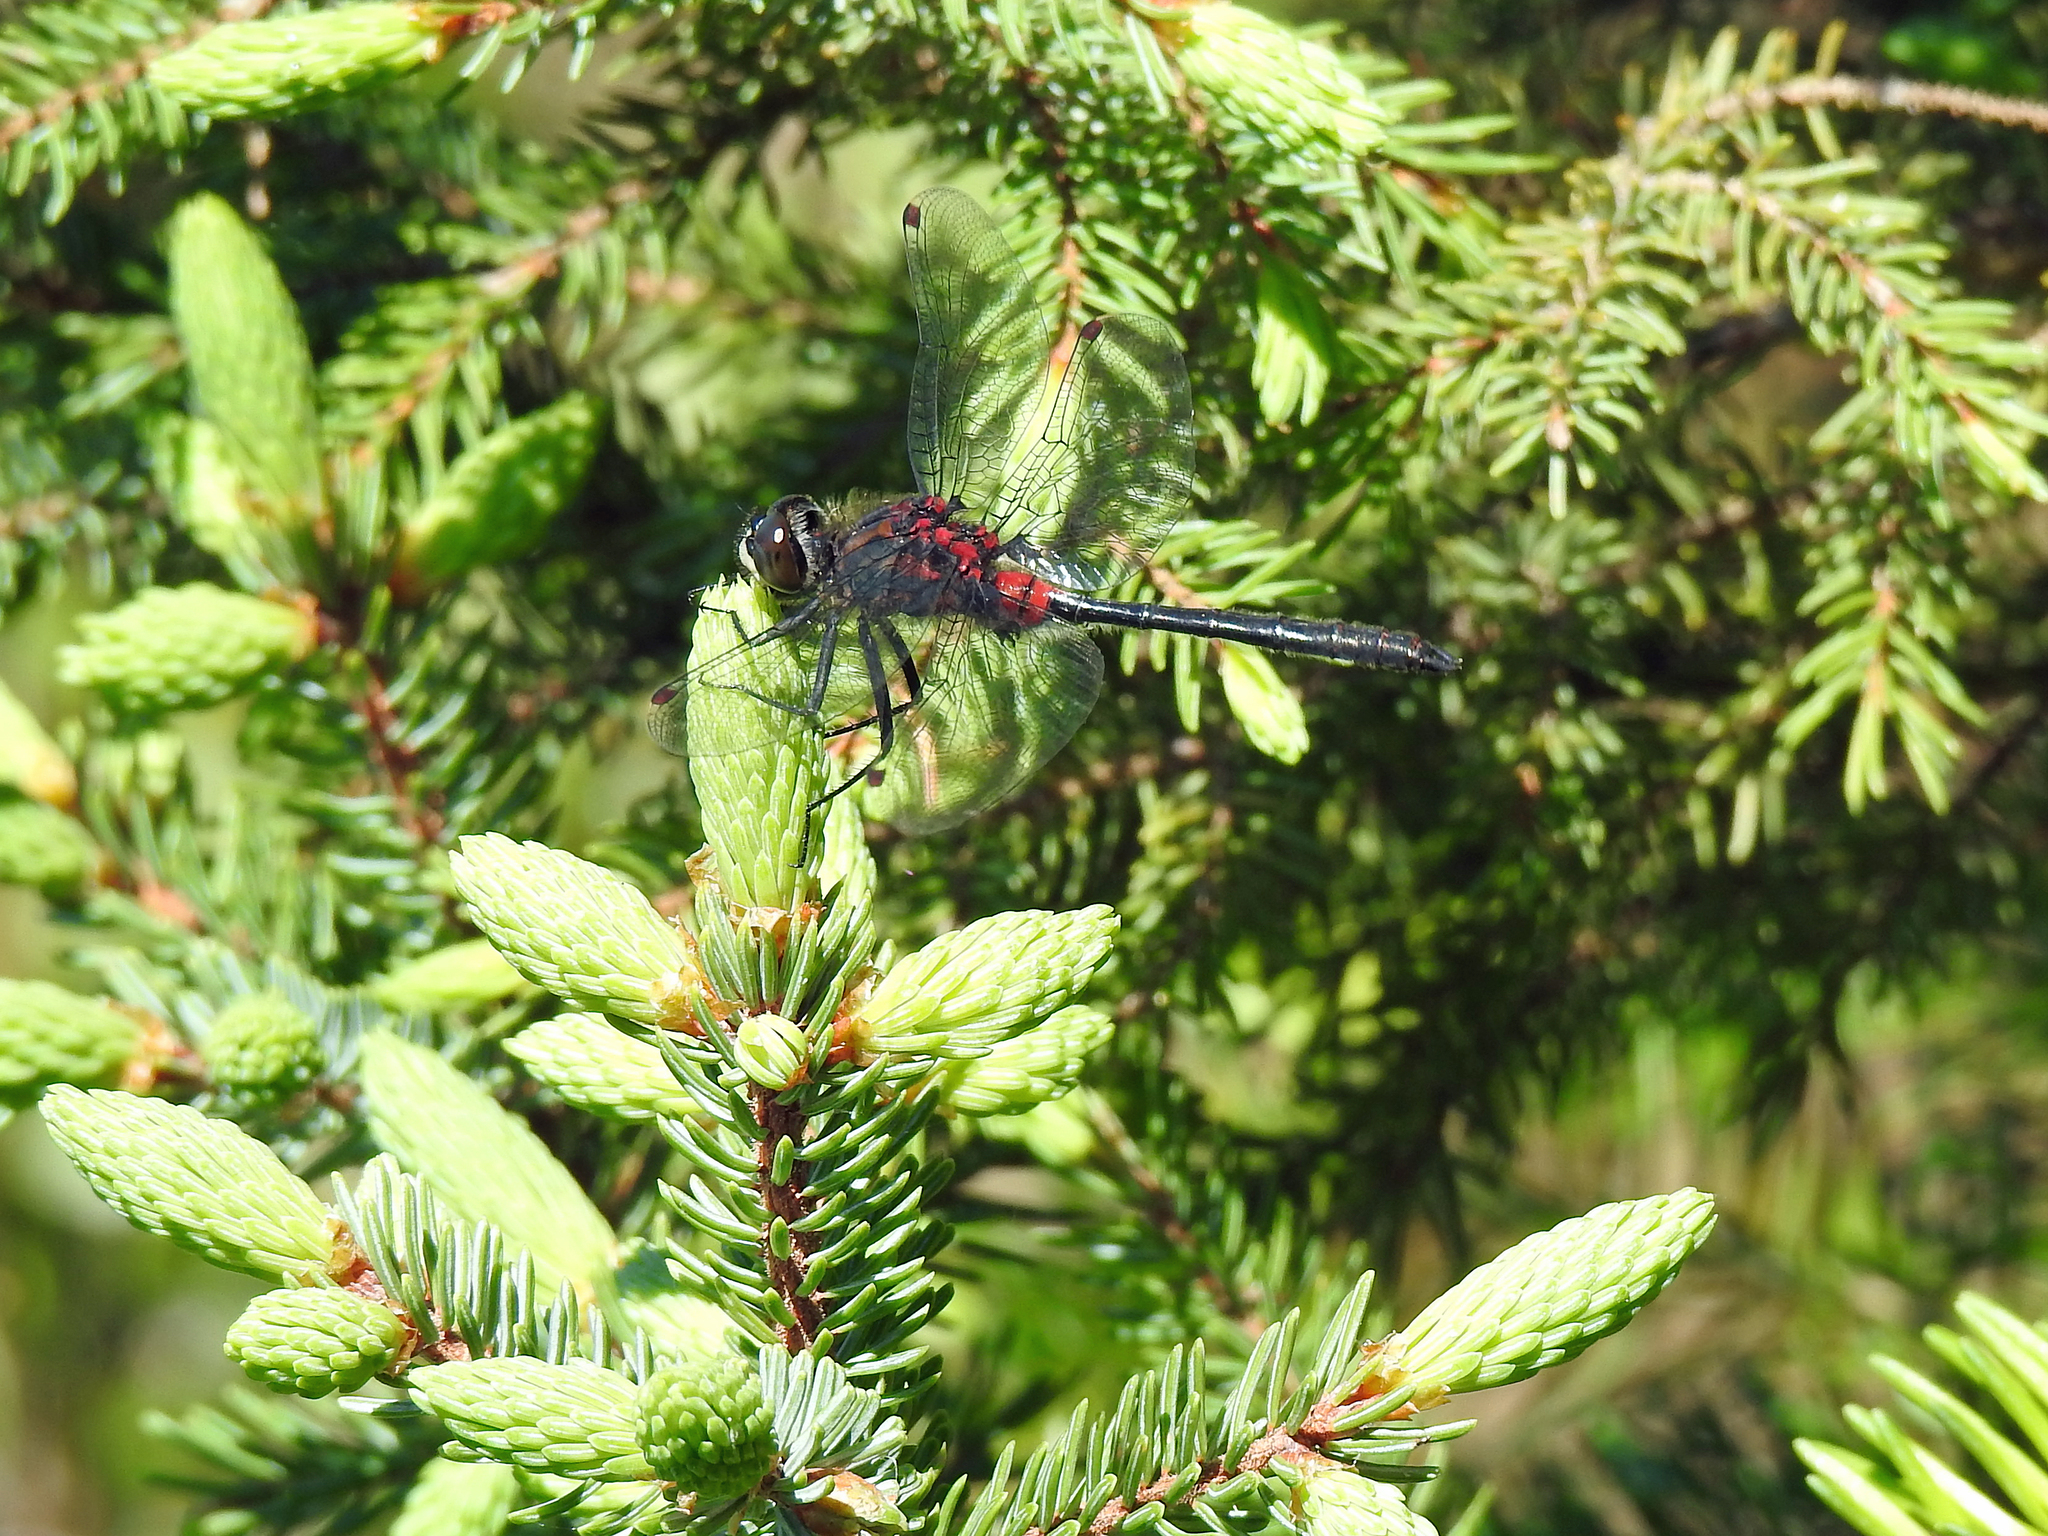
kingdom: Animalia
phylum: Arthropoda
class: Insecta
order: Odonata
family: Libellulidae
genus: Leucorrhinia
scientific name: Leucorrhinia glacialis
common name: Crimson-ringed whiteface
